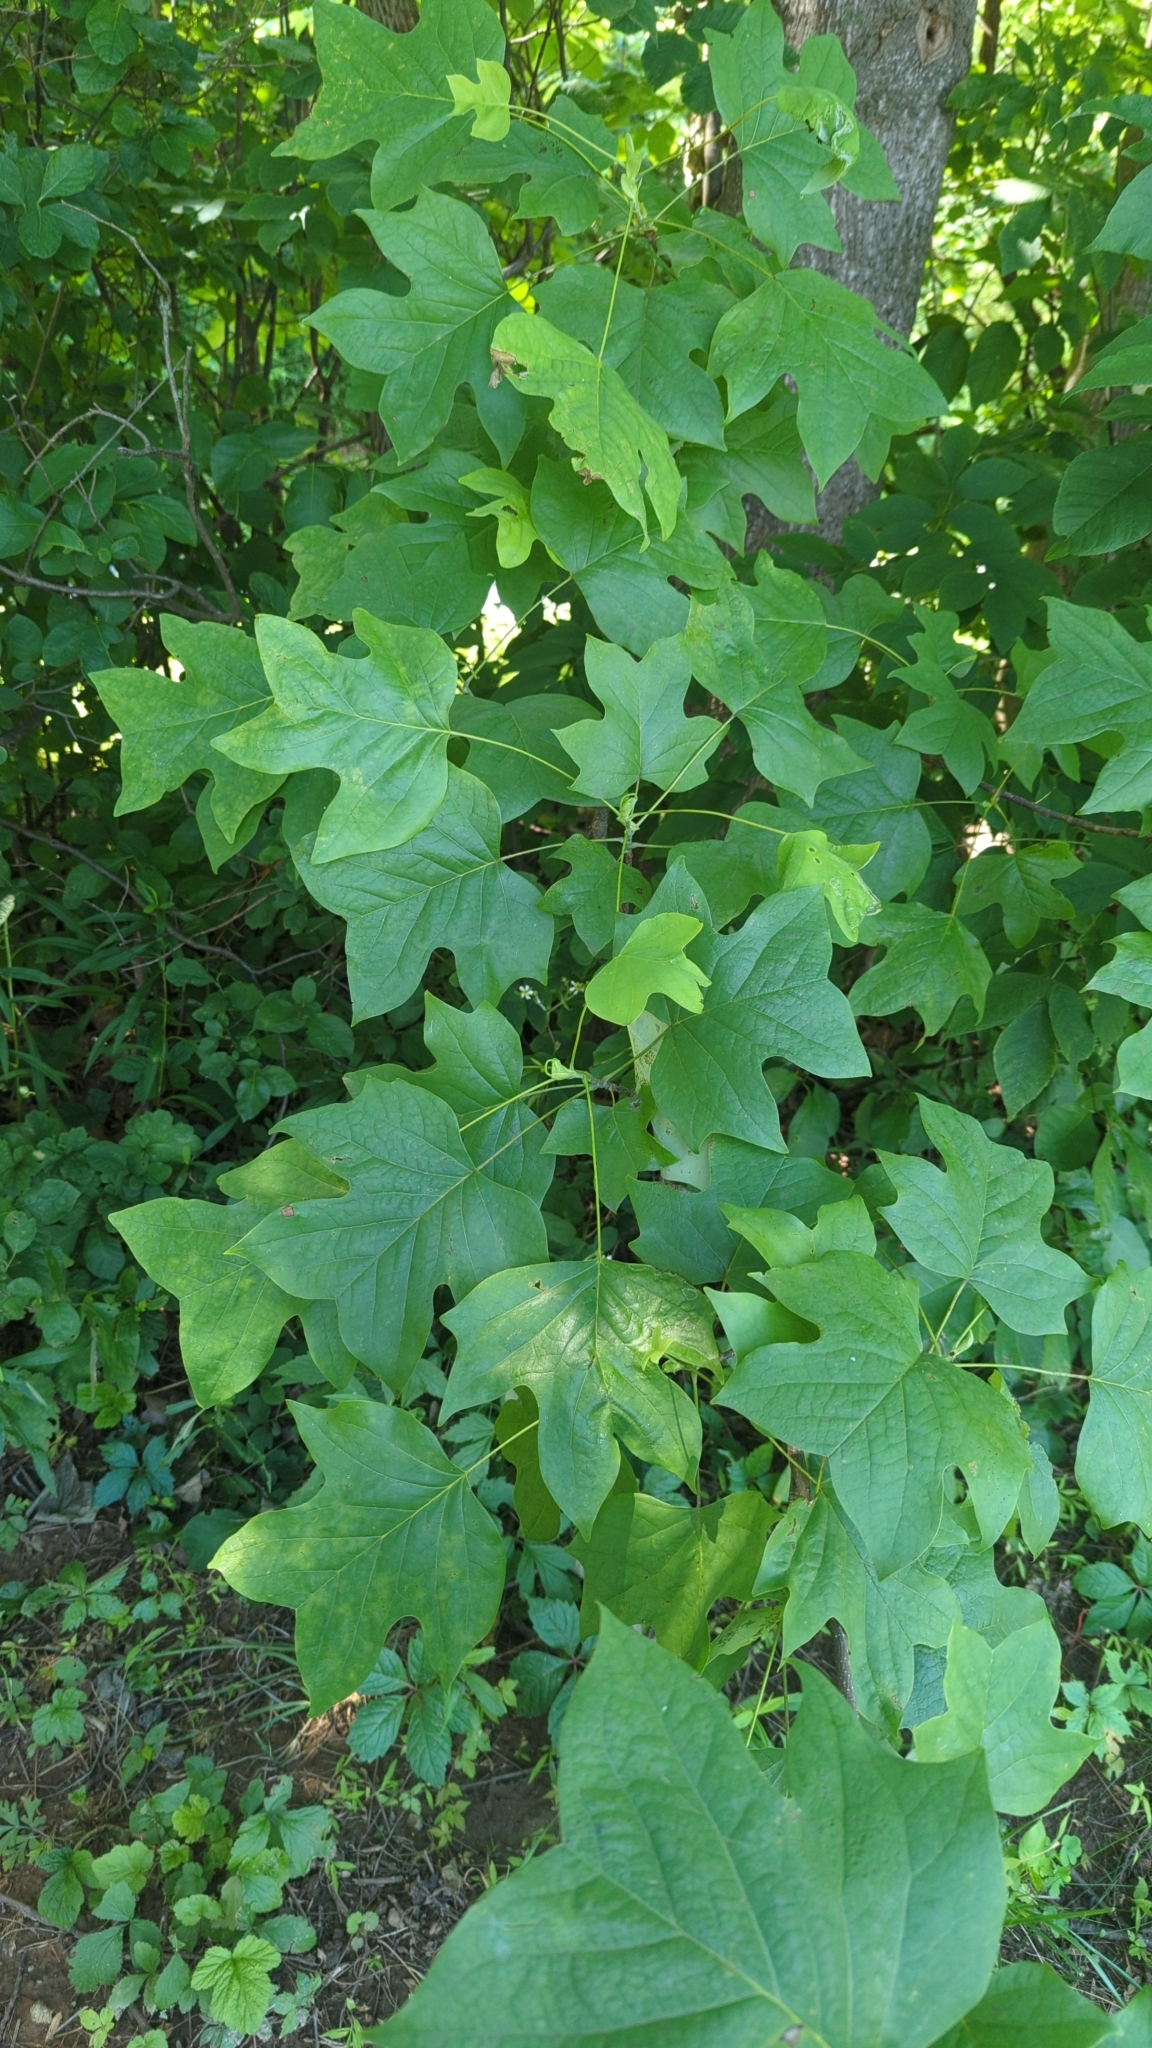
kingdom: Plantae
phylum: Tracheophyta
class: Magnoliopsida
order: Magnoliales
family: Magnoliaceae
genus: Liriodendron
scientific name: Liriodendron tulipifera
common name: Tulip tree
